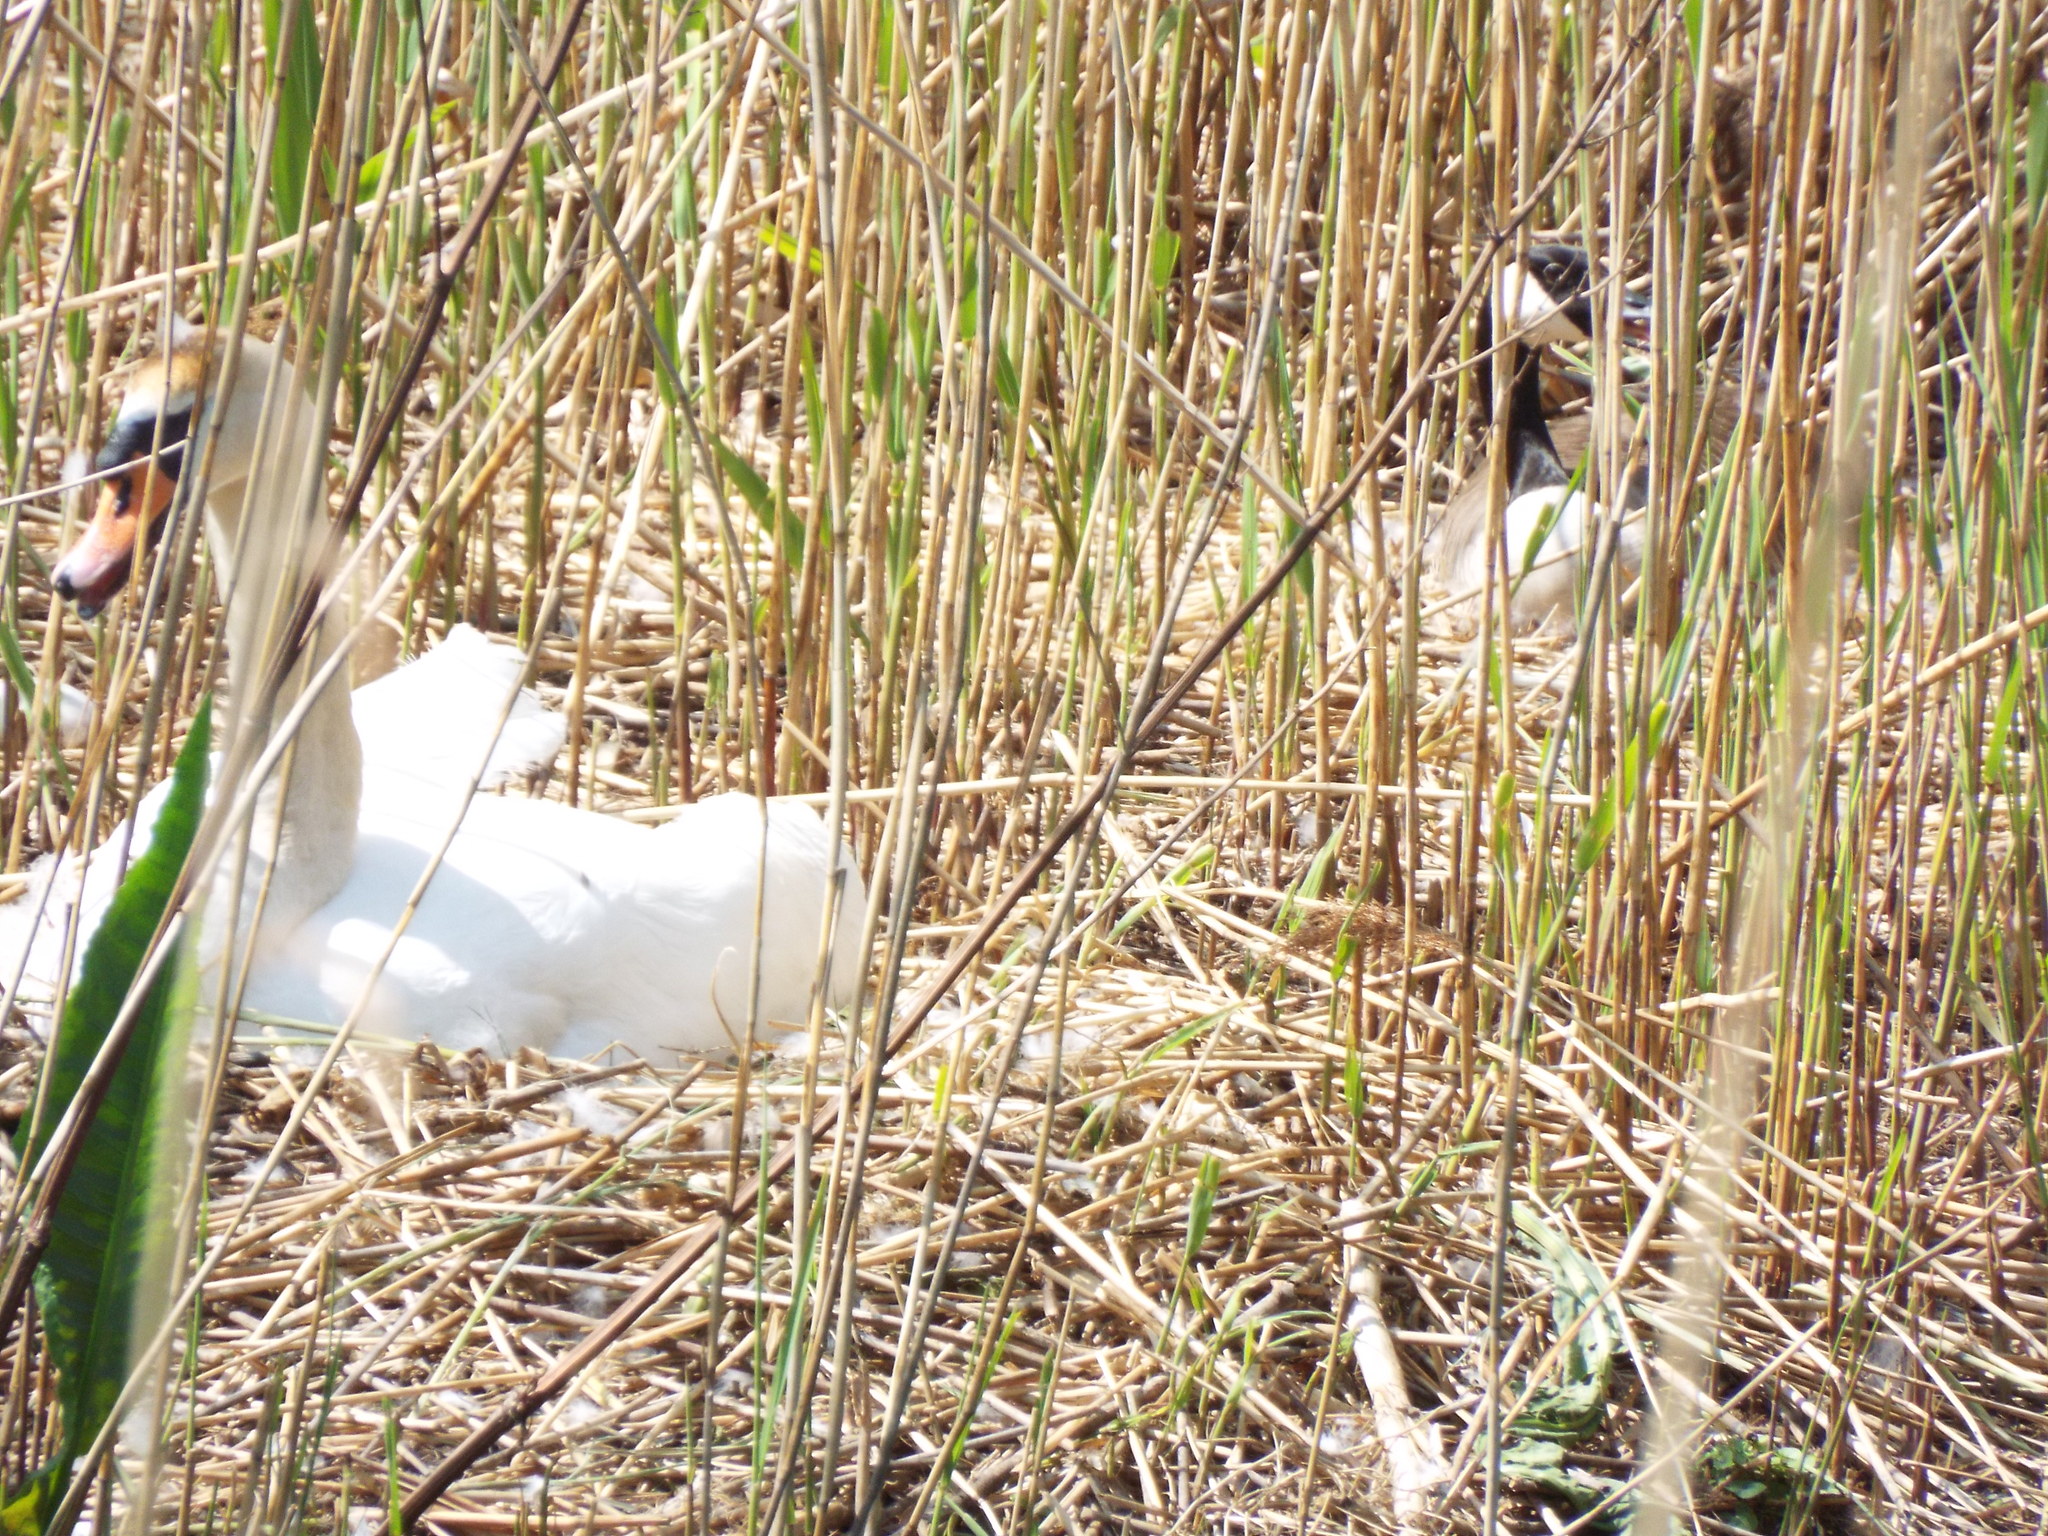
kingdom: Animalia
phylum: Chordata
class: Aves
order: Anseriformes
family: Anatidae
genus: Cygnus
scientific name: Cygnus olor
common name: Mute swan
